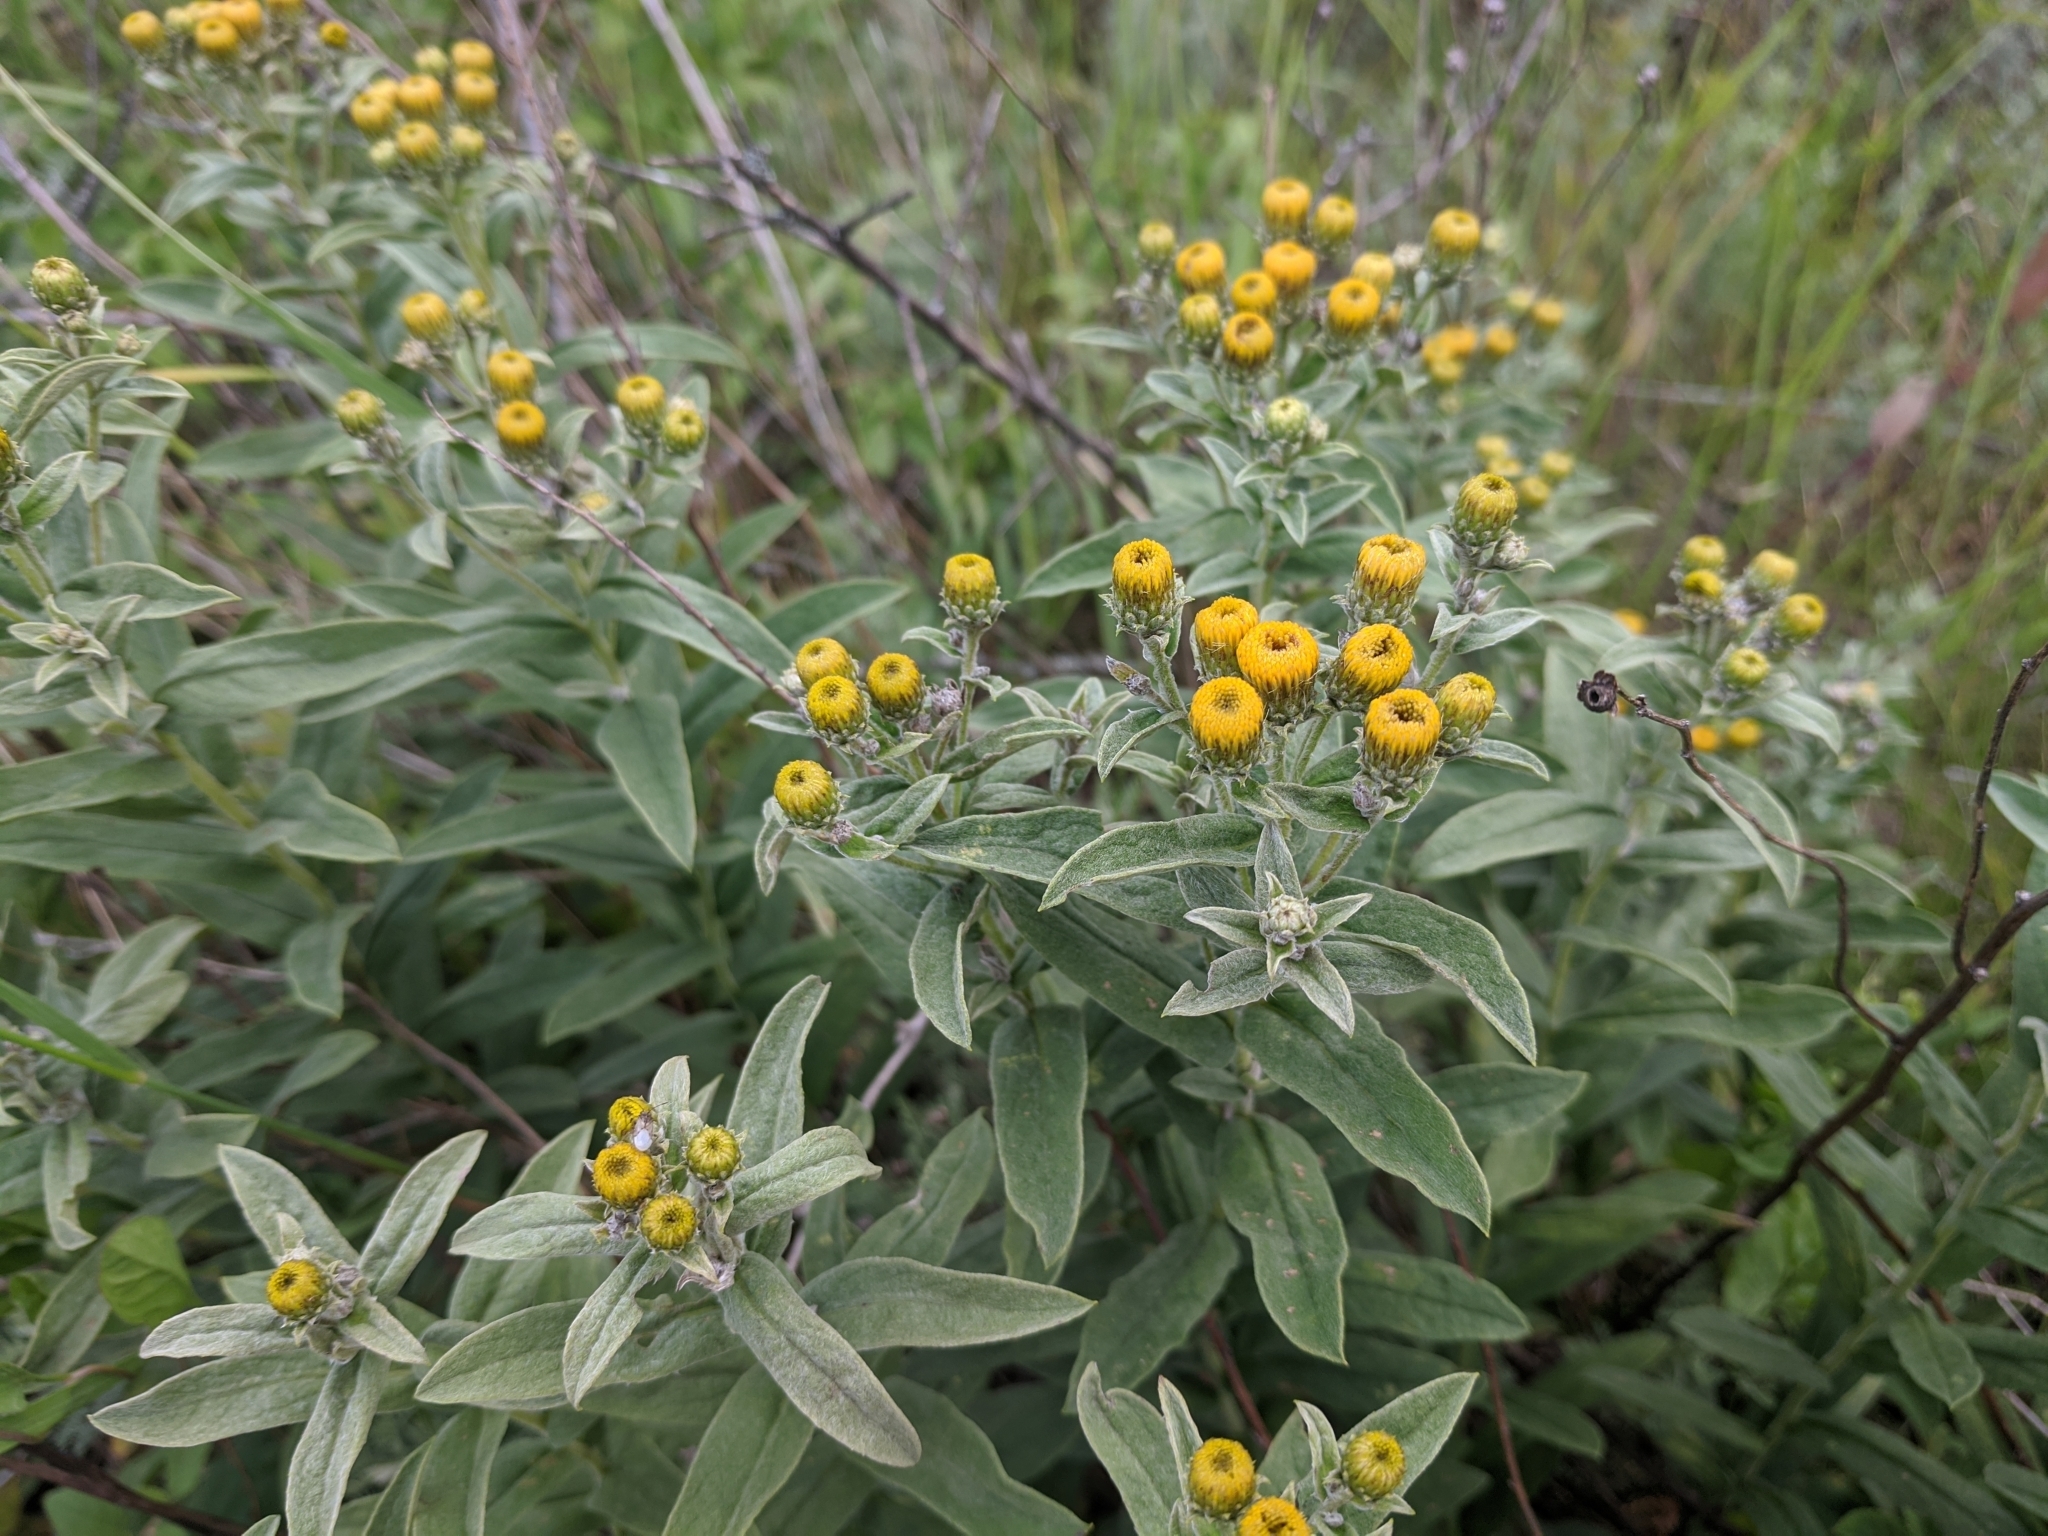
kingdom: Plantae
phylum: Tracheophyta
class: Magnoliopsida
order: Asterales
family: Asteraceae
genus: Pentanema
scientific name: Pentanema germanicum
